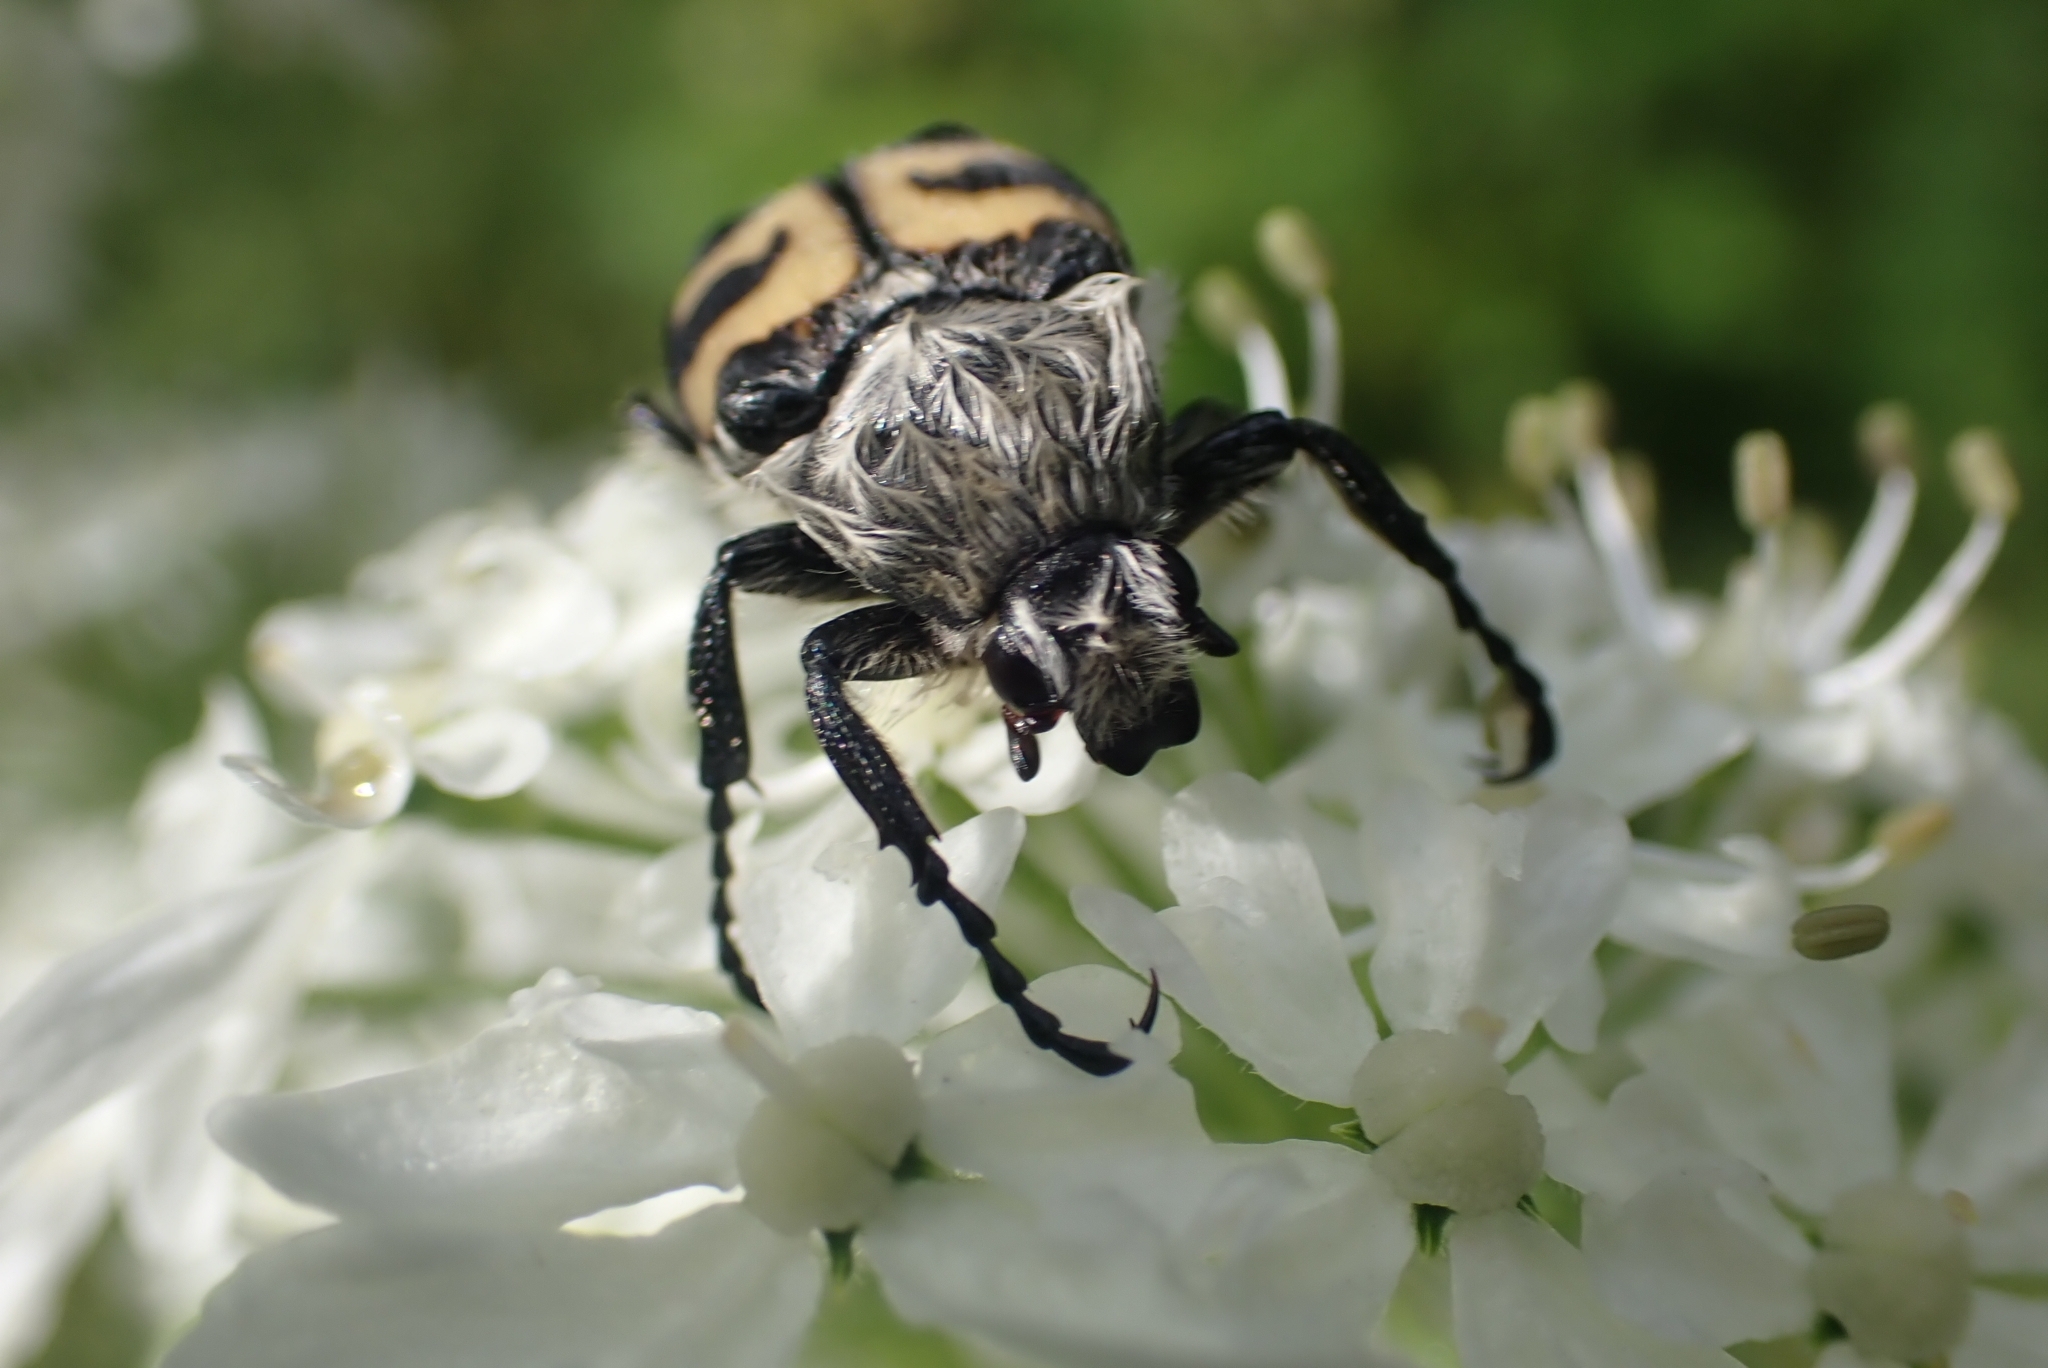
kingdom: Animalia
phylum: Arthropoda
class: Insecta
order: Coleoptera
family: Scarabaeidae
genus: Trichius
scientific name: Trichius fasciatus
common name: Bee beetle
